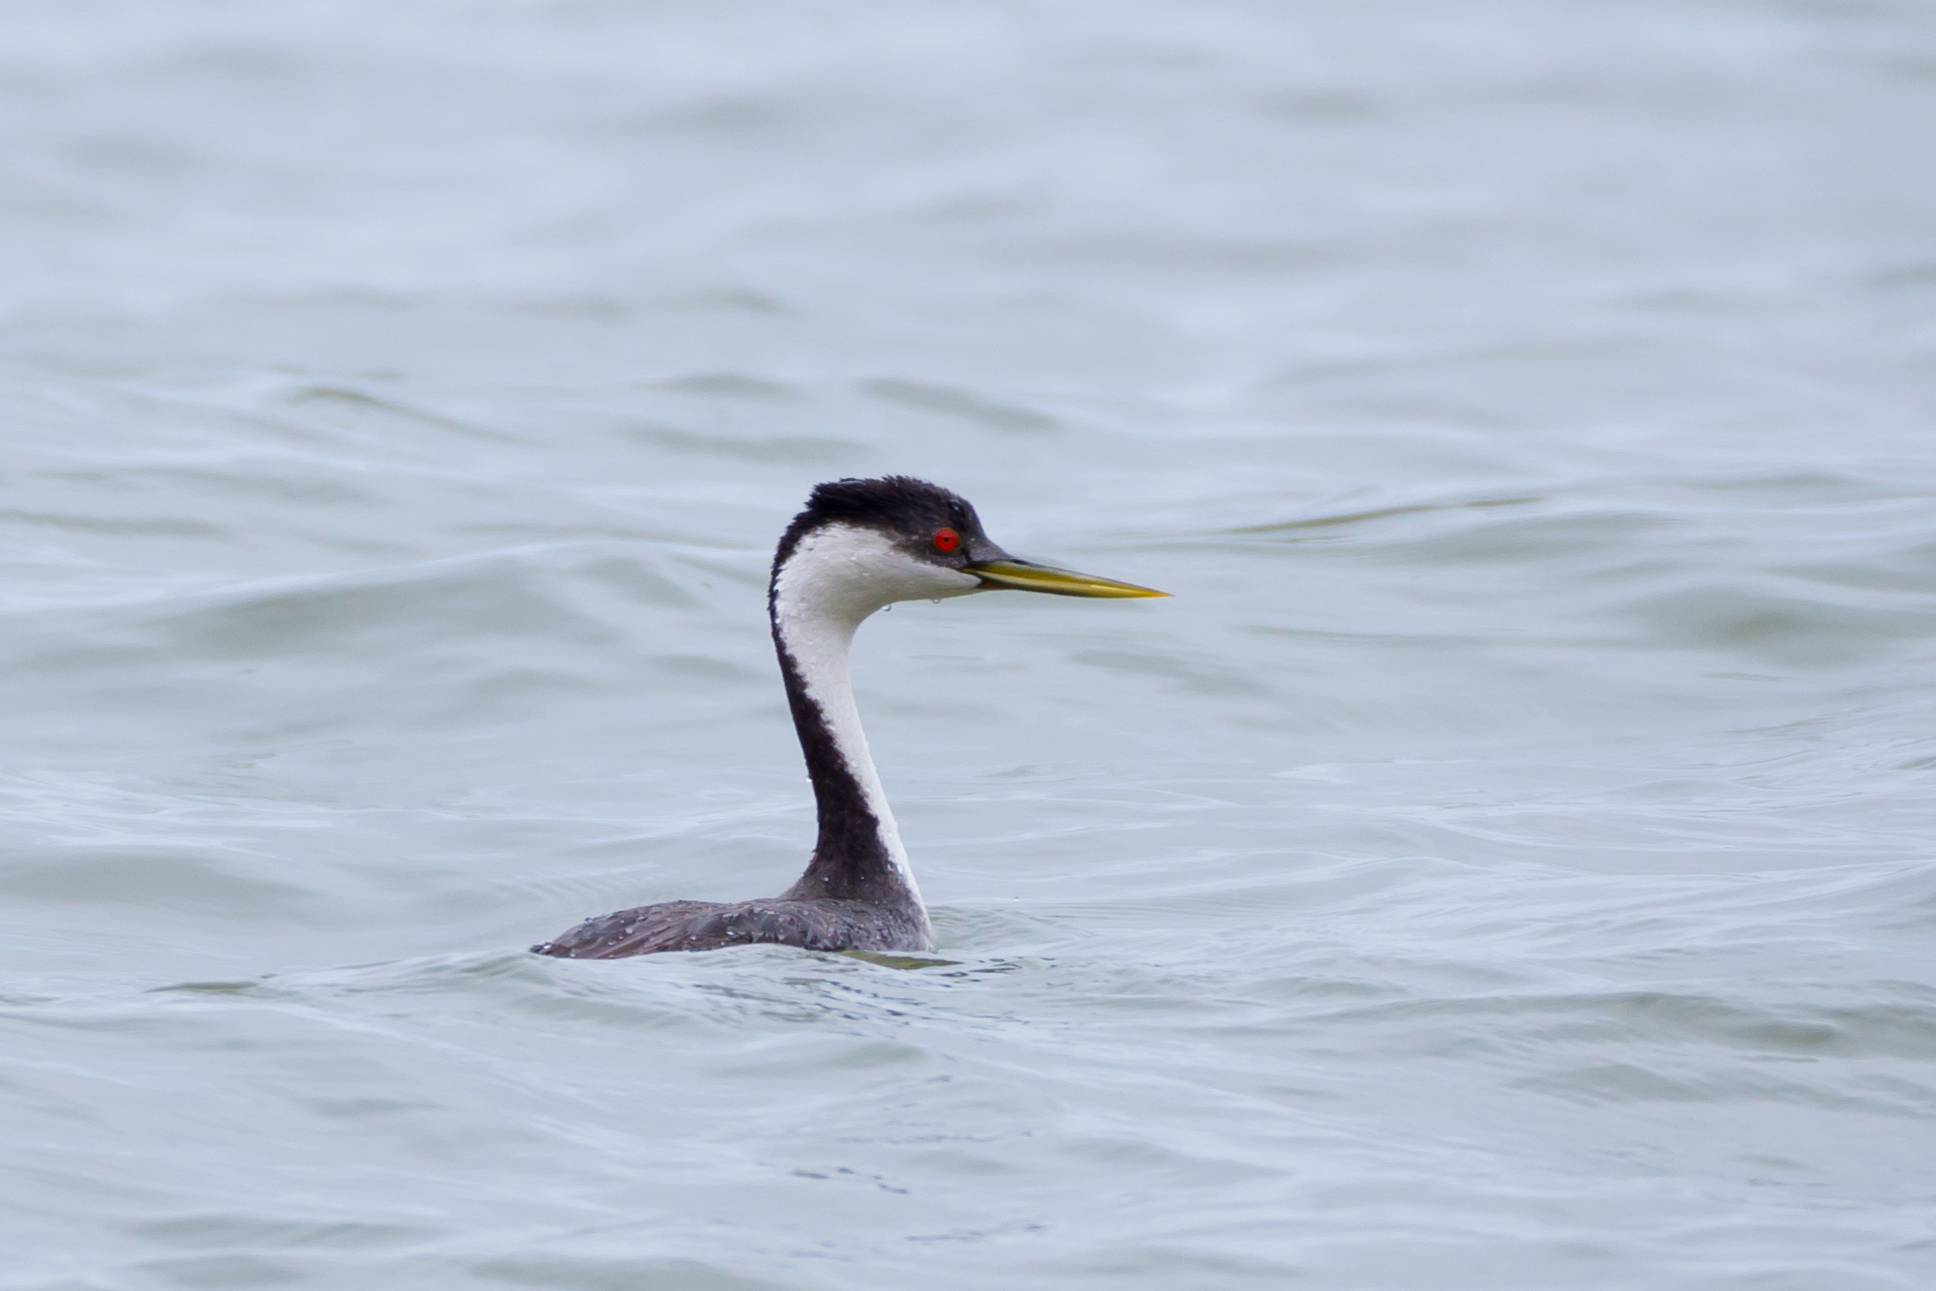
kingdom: Animalia
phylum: Chordata
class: Aves
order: Podicipediformes
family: Podicipedidae
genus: Aechmophorus
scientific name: Aechmophorus occidentalis
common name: Western grebe
